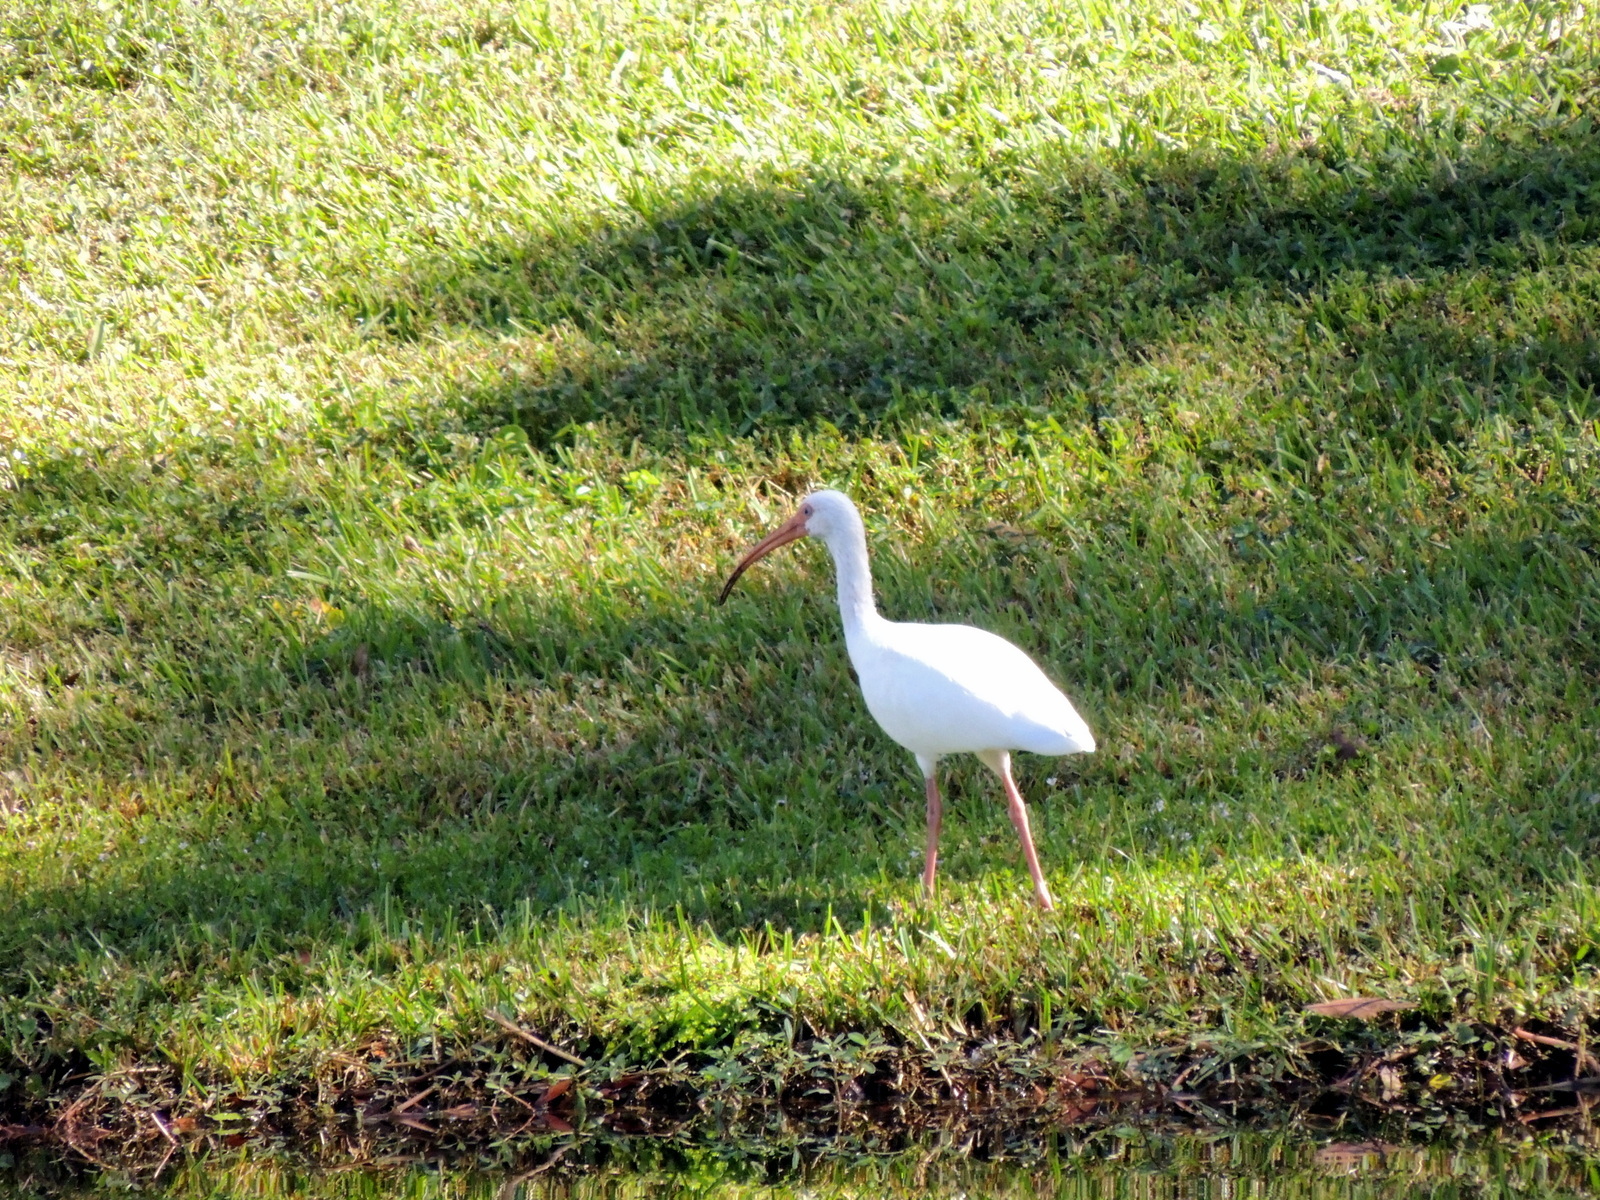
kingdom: Animalia
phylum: Chordata
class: Aves
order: Pelecaniformes
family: Threskiornithidae
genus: Eudocimus
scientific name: Eudocimus albus
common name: White ibis
